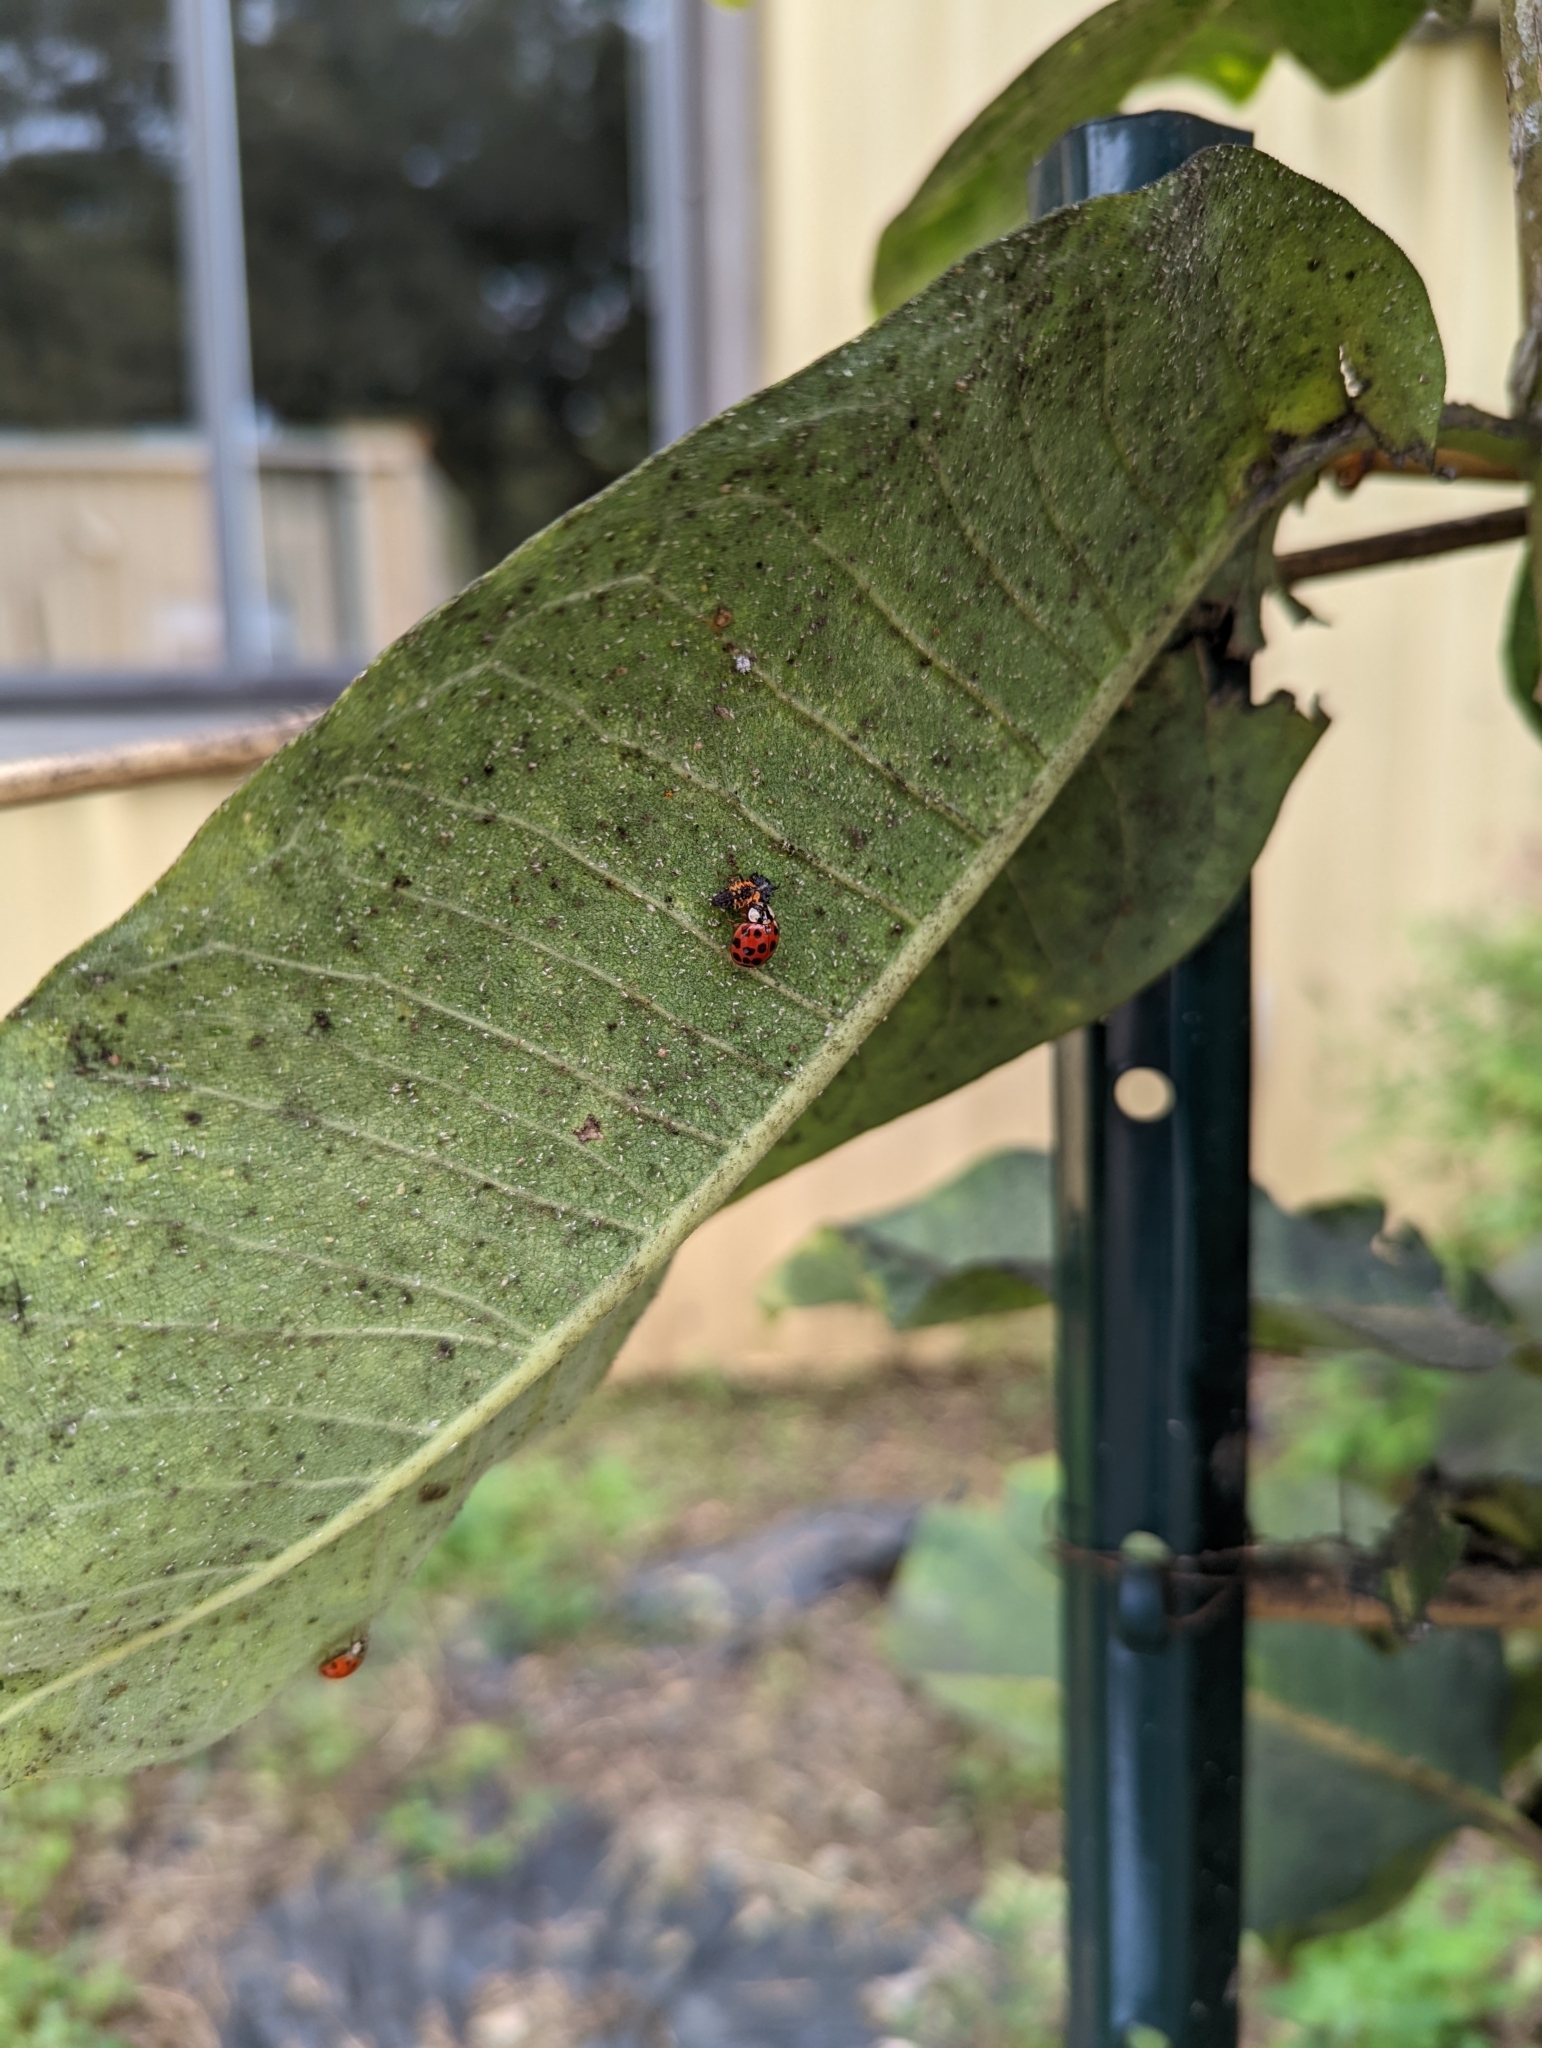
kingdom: Animalia
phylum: Arthropoda
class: Insecta
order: Coleoptera
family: Coccinellidae
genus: Harmonia
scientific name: Harmonia axyridis
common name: Harlequin ladybird
